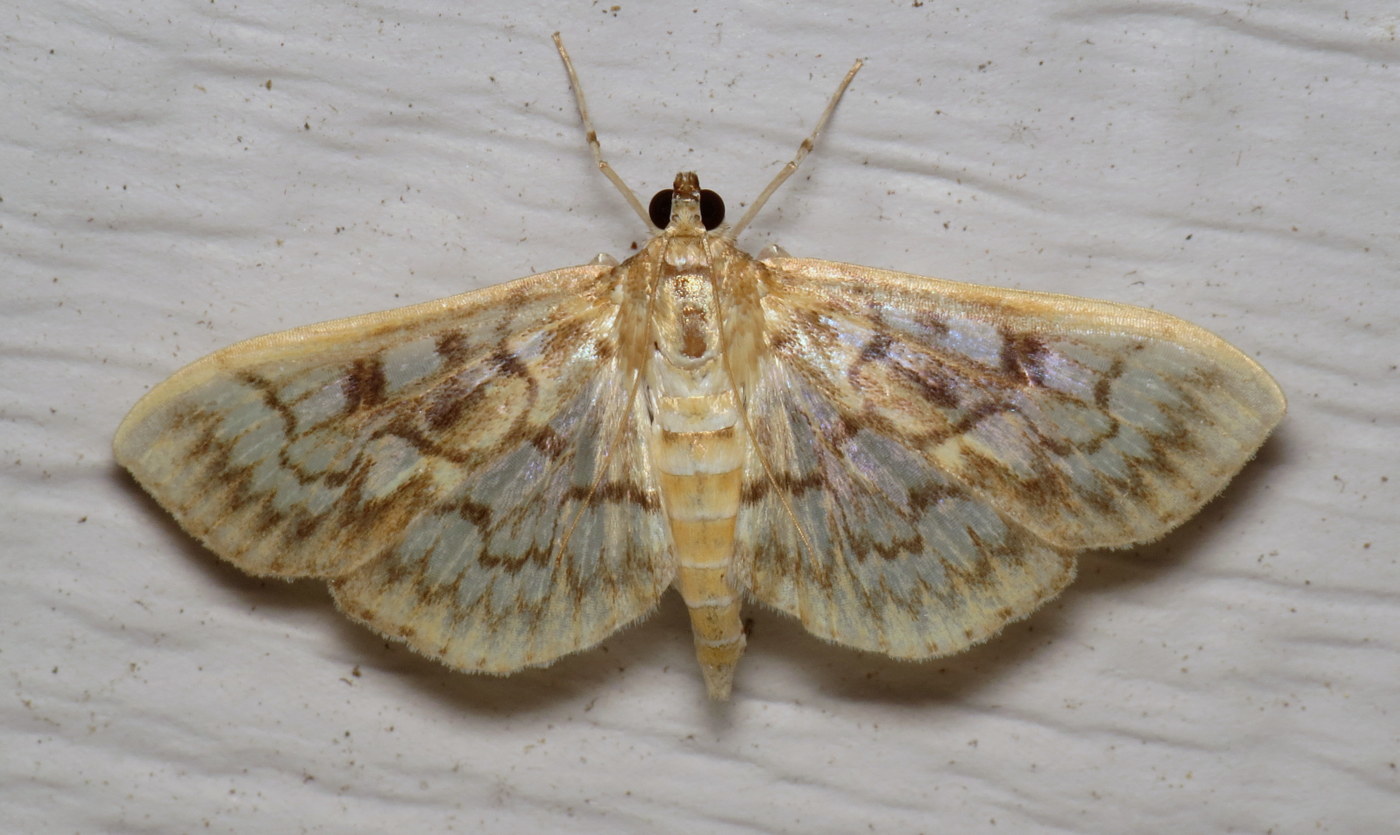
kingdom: Animalia
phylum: Arthropoda
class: Insecta
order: Lepidoptera
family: Crambidae
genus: Herpetogramma
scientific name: Herpetogramma pertextalis
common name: Bold-feathered grass moth
